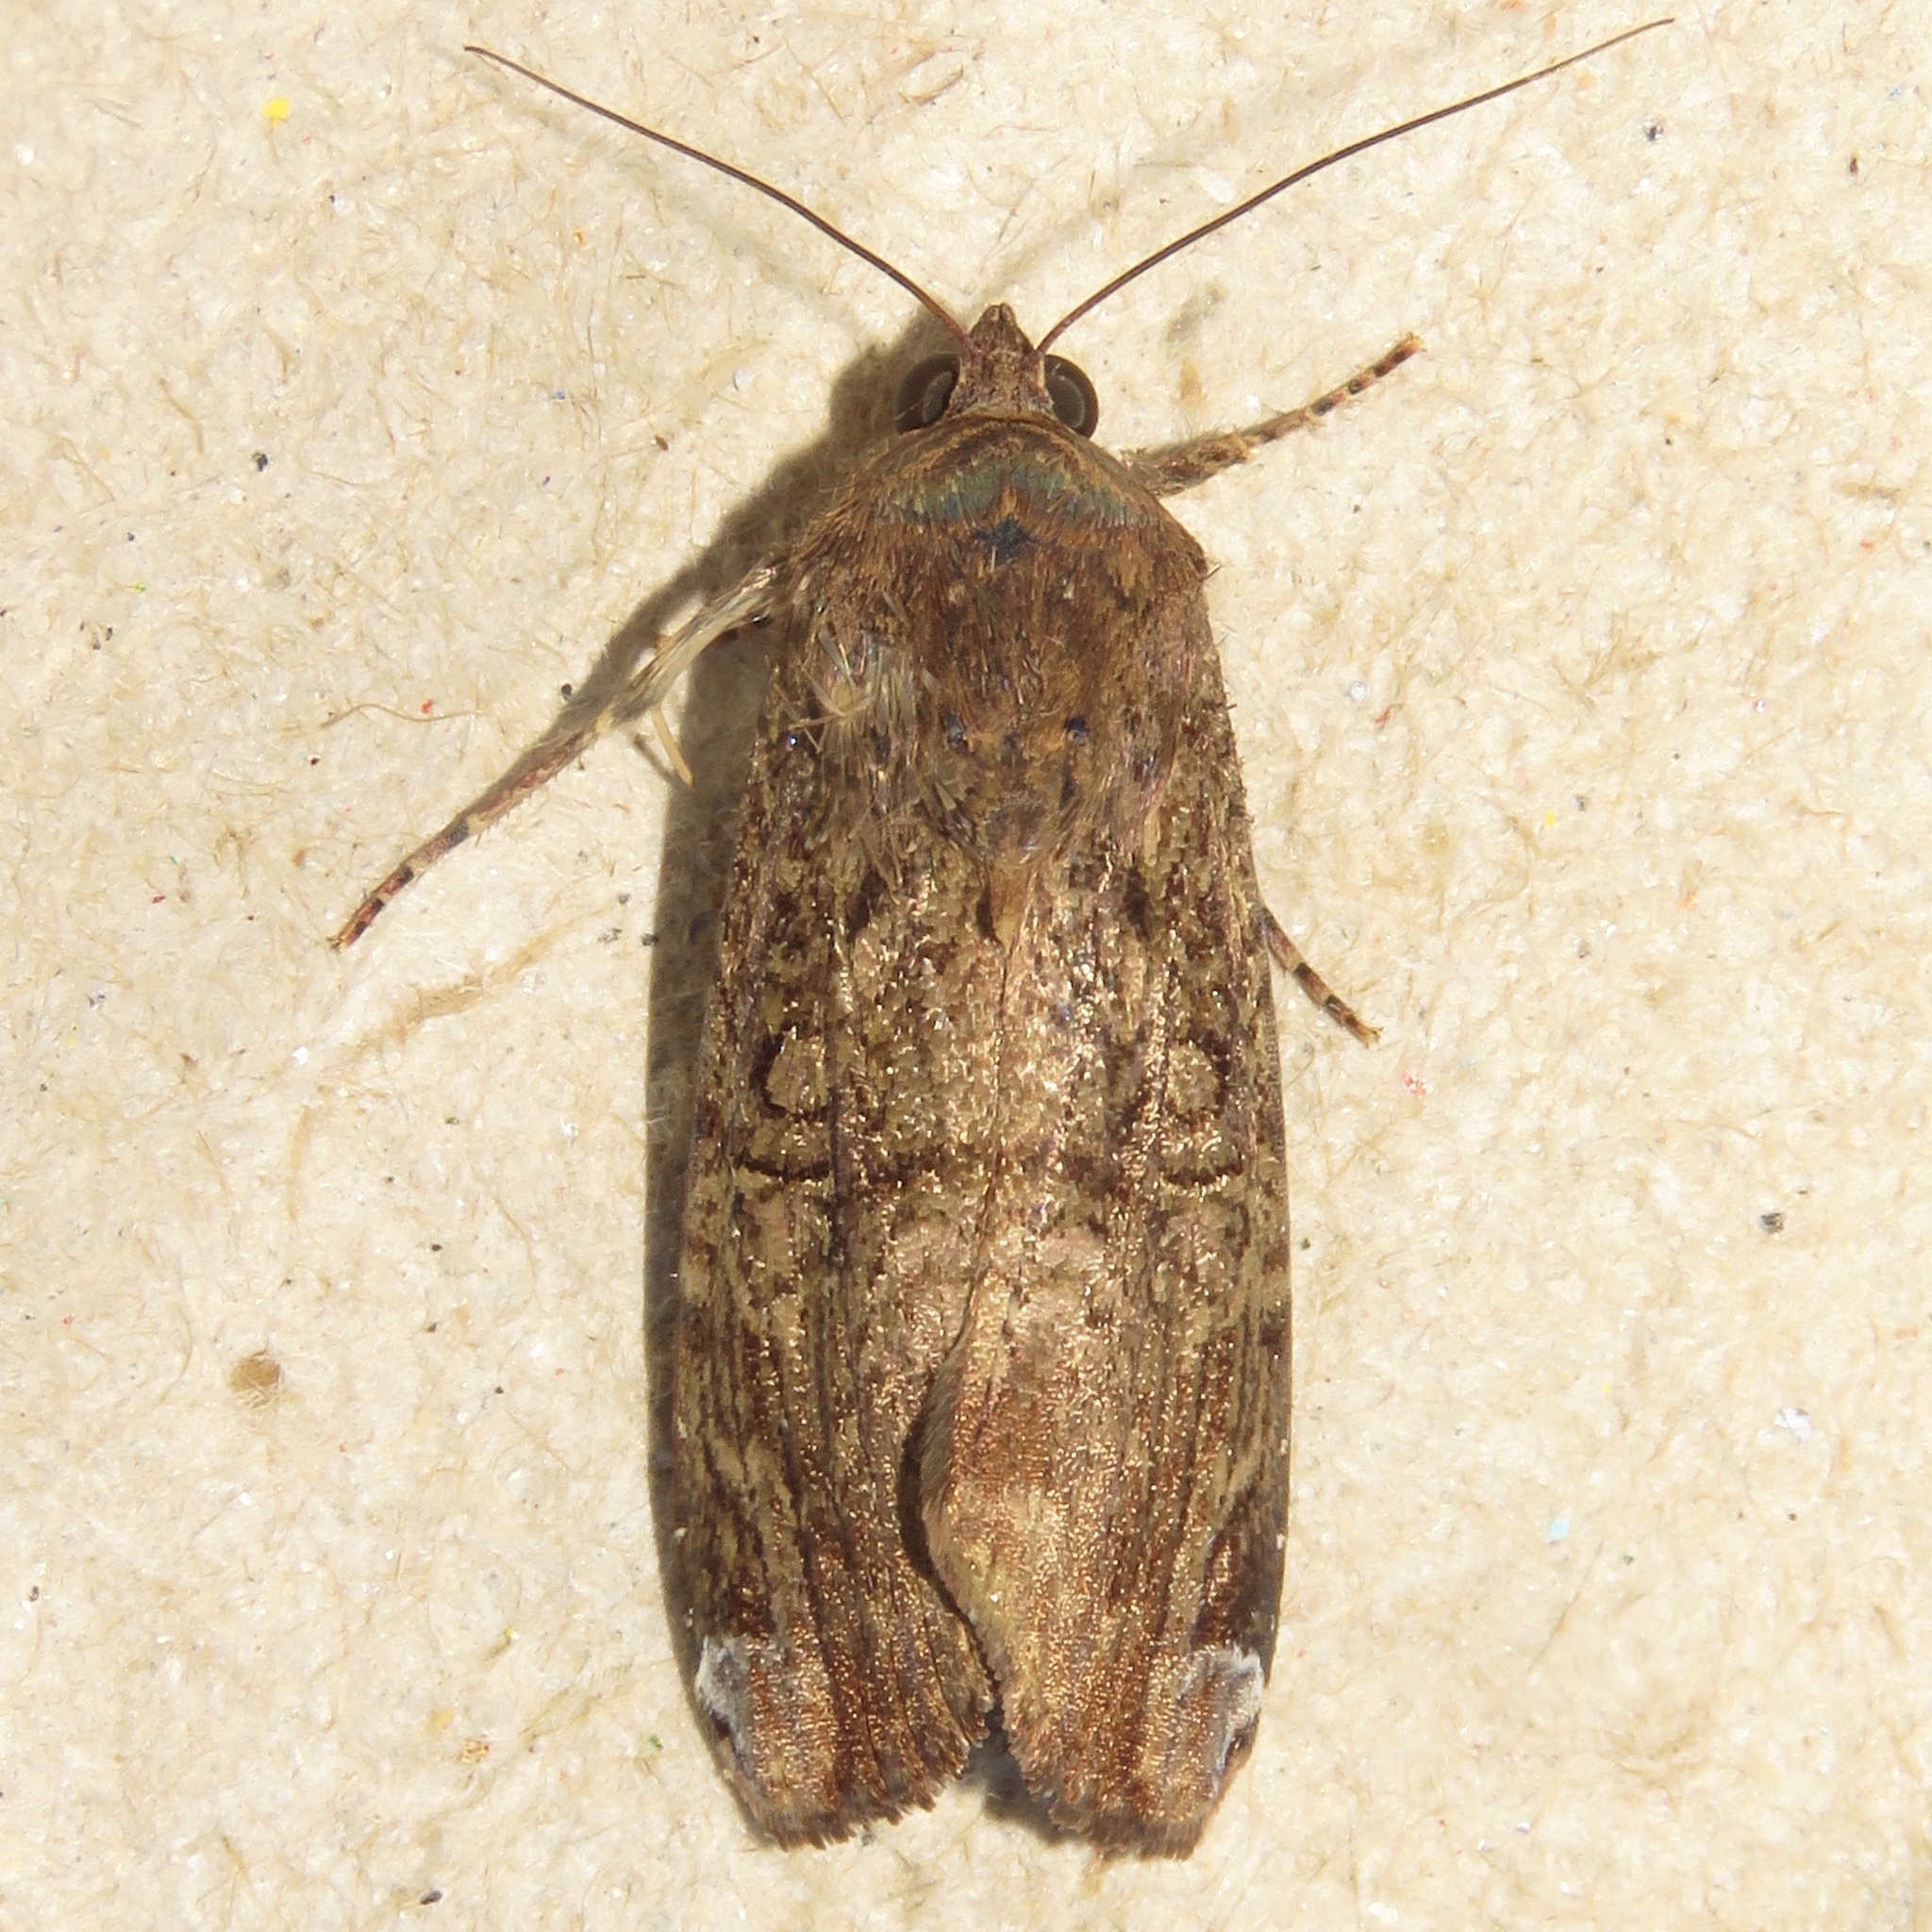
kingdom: Animalia
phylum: Arthropoda
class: Insecta
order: Lepidoptera
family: Noctuidae
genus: Magusa
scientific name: Magusa divaricata
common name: Orb narrow-winged moth
